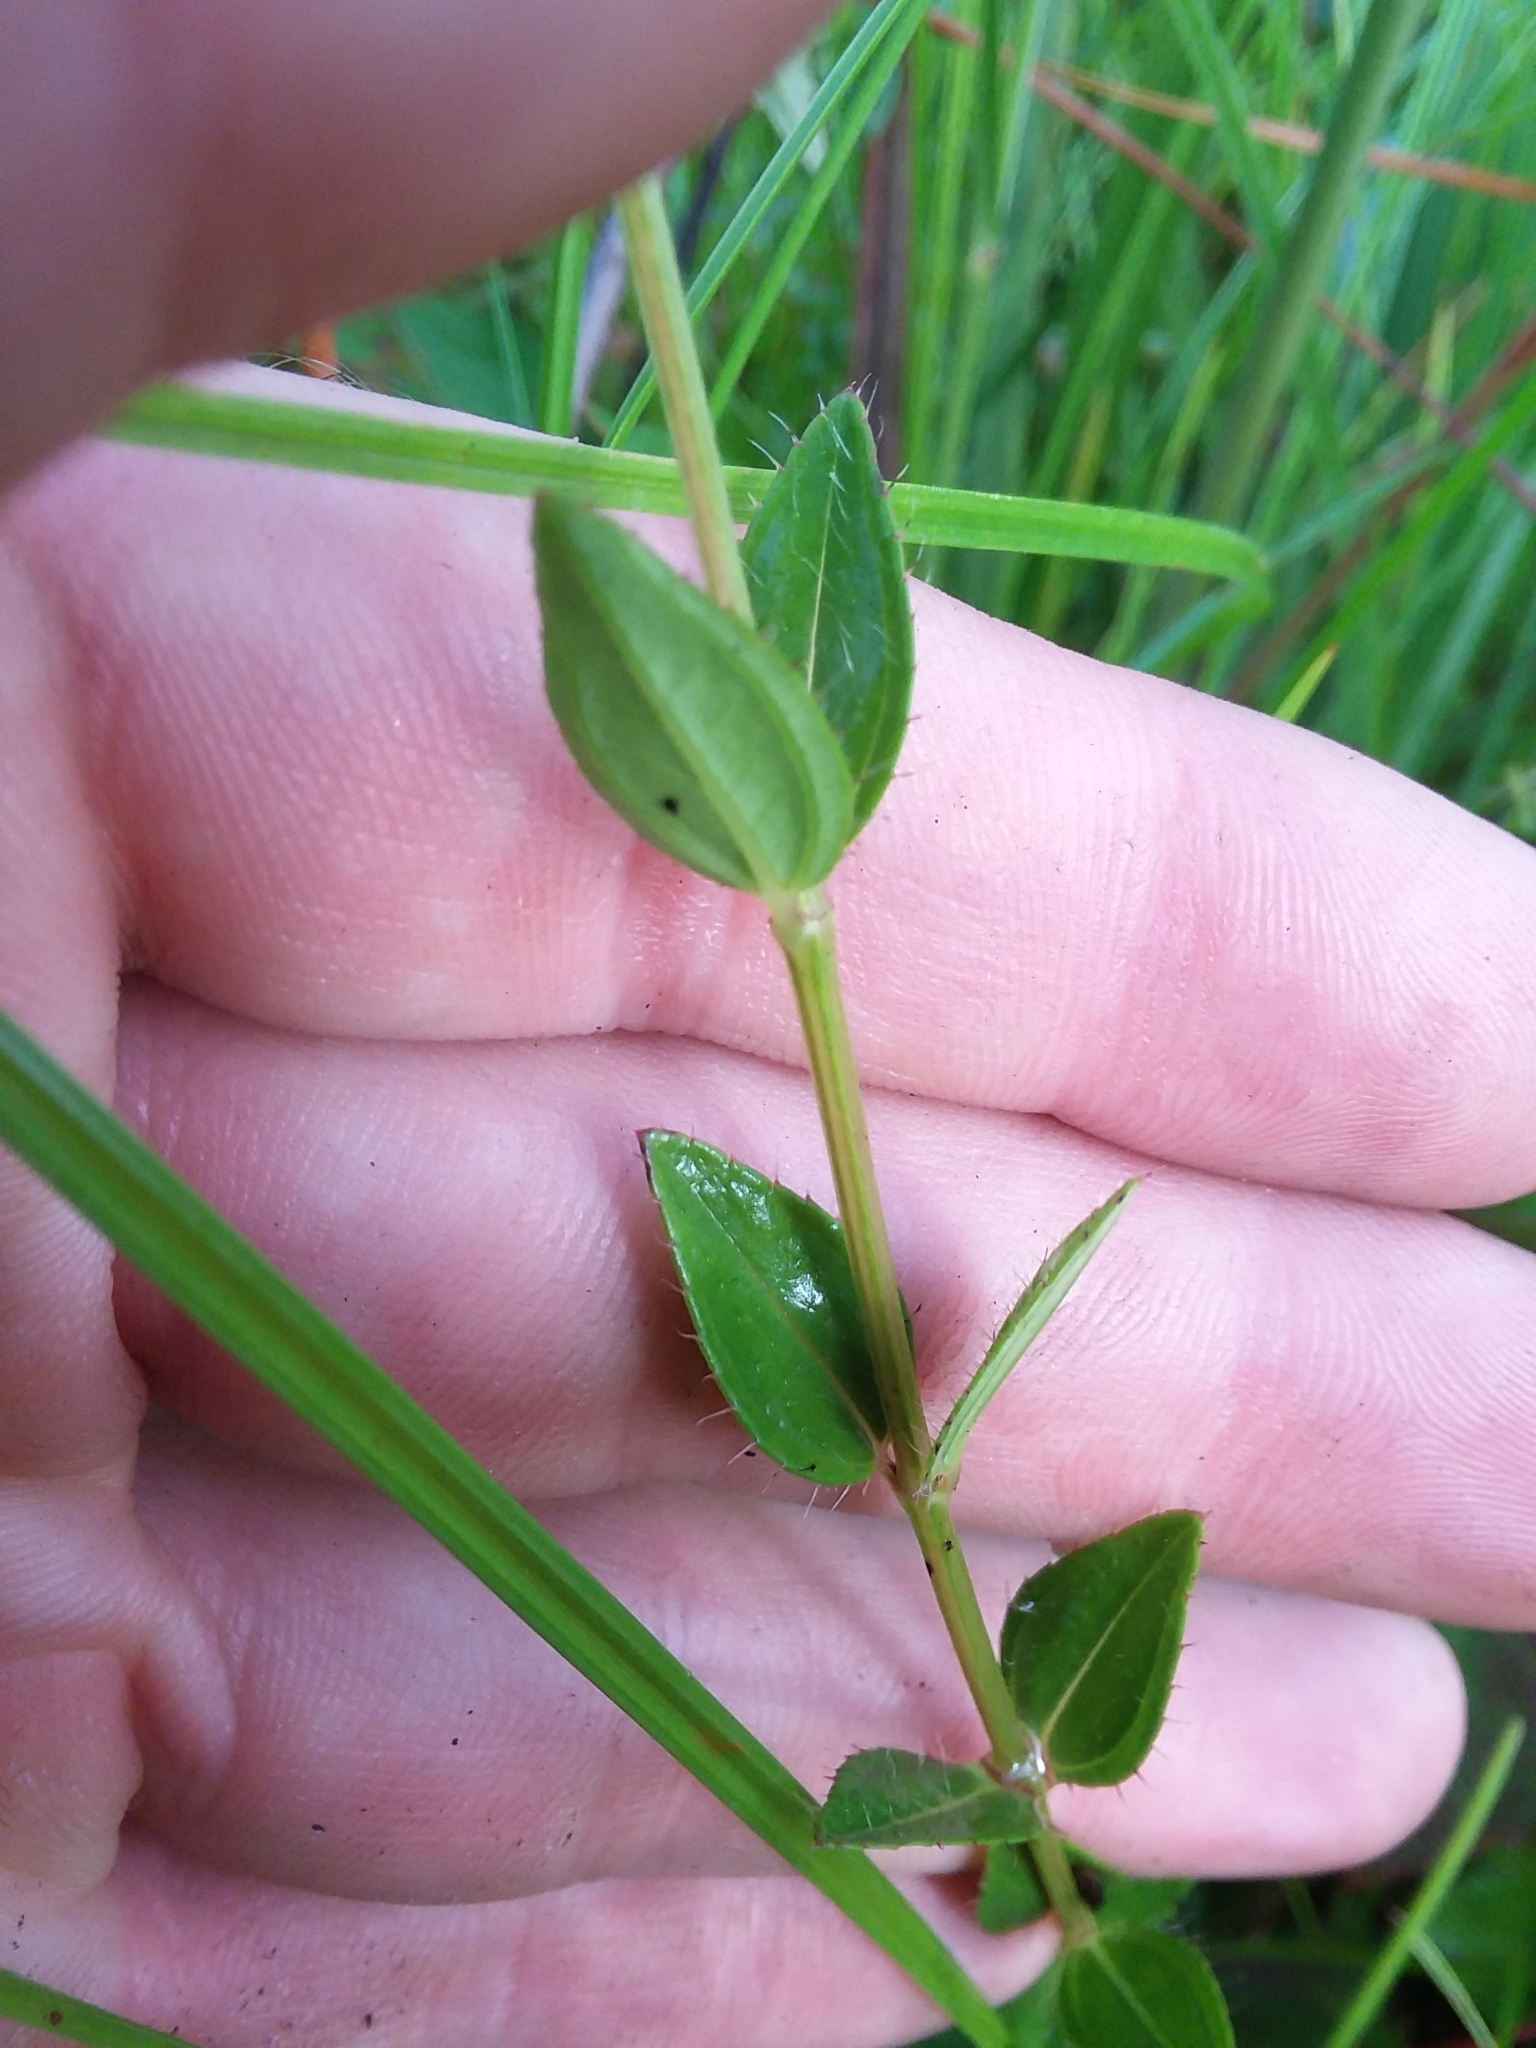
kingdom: Plantae
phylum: Tracheophyta
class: Magnoliopsida
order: Myrtales
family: Melastomataceae
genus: Rhexia
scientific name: Rhexia petiolata
